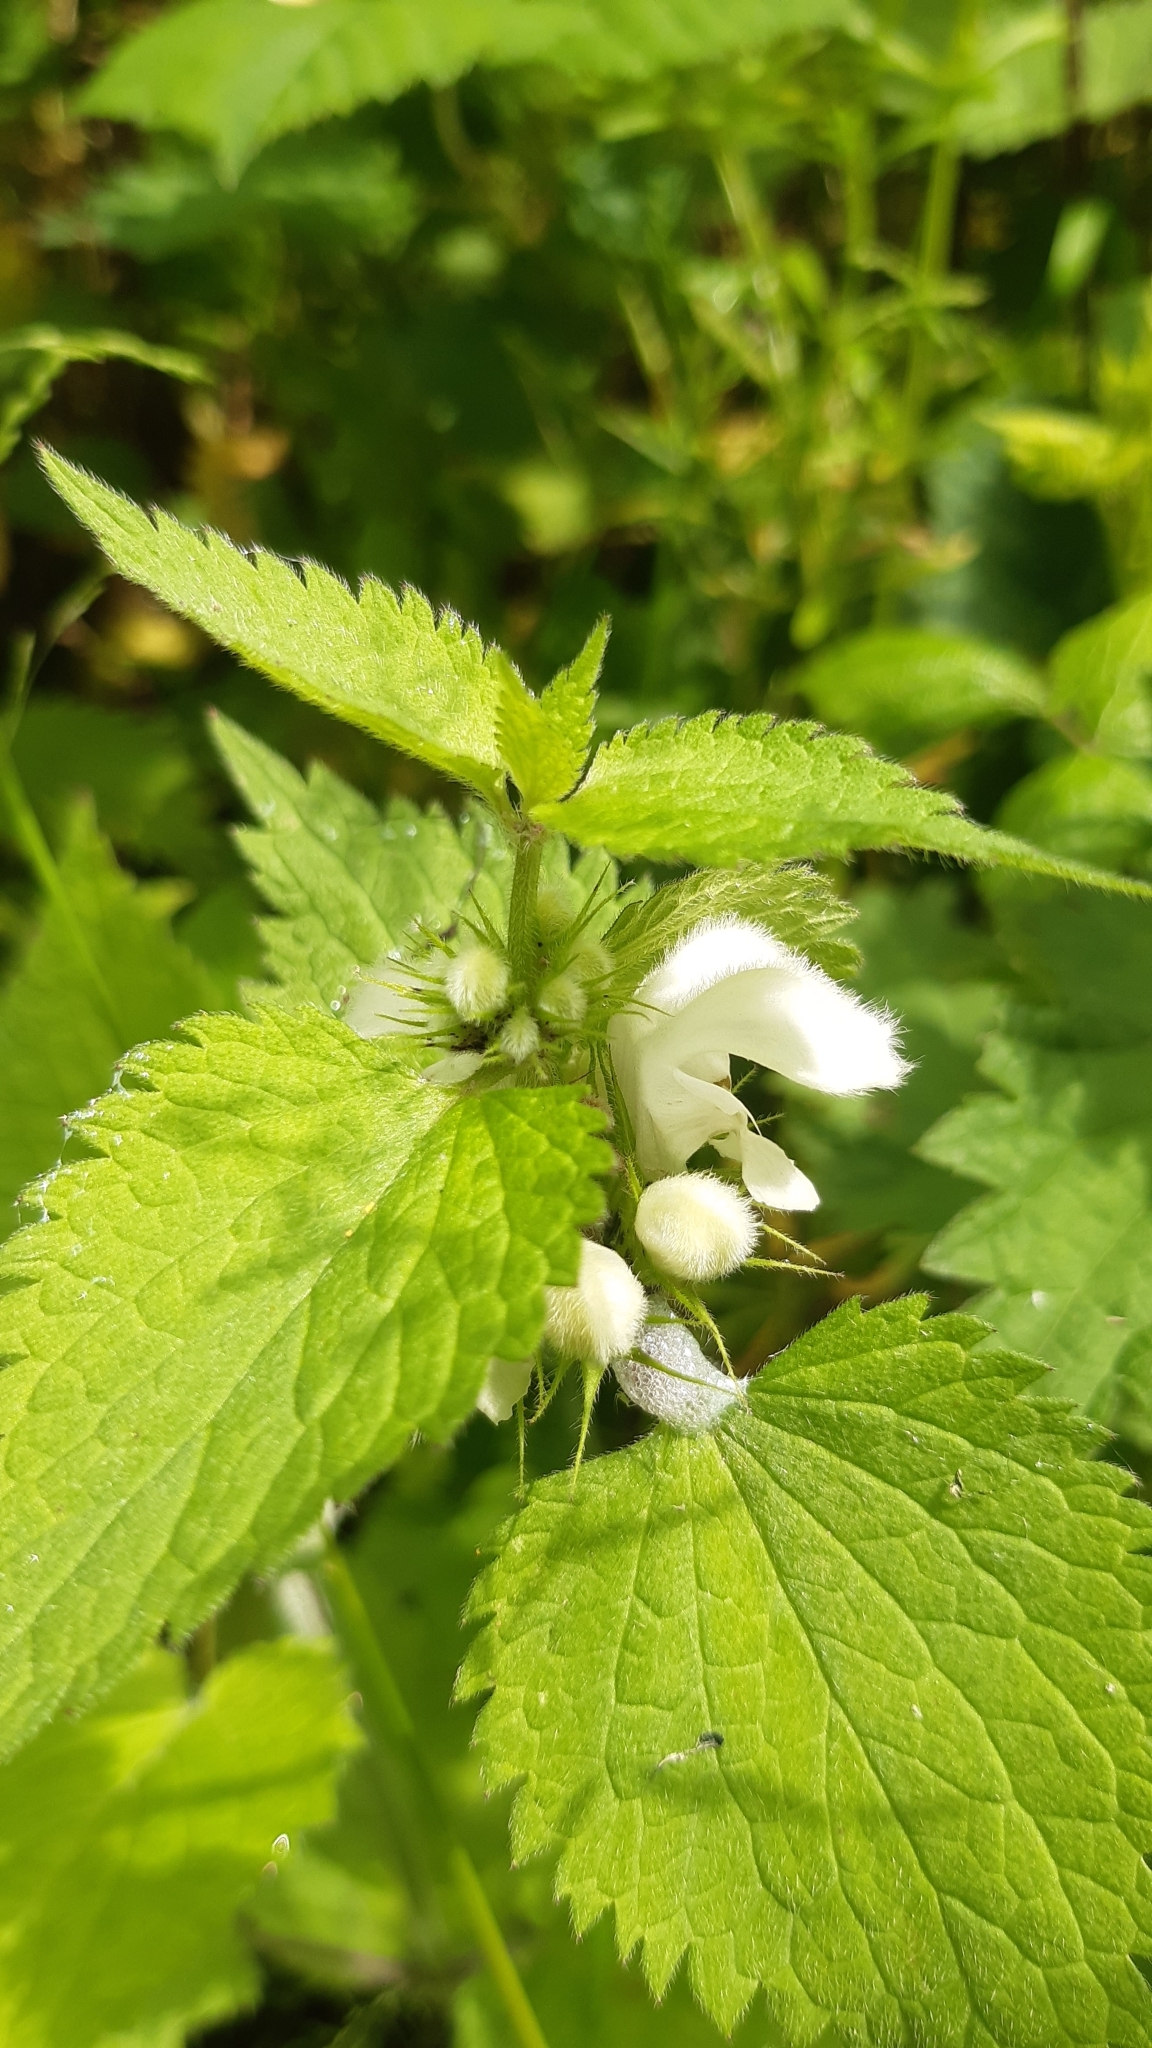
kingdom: Plantae
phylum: Tracheophyta
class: Magnoliopsida
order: Lamiales
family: Lamiaceae
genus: Lamium
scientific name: Lamium album
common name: White dead-nettle
